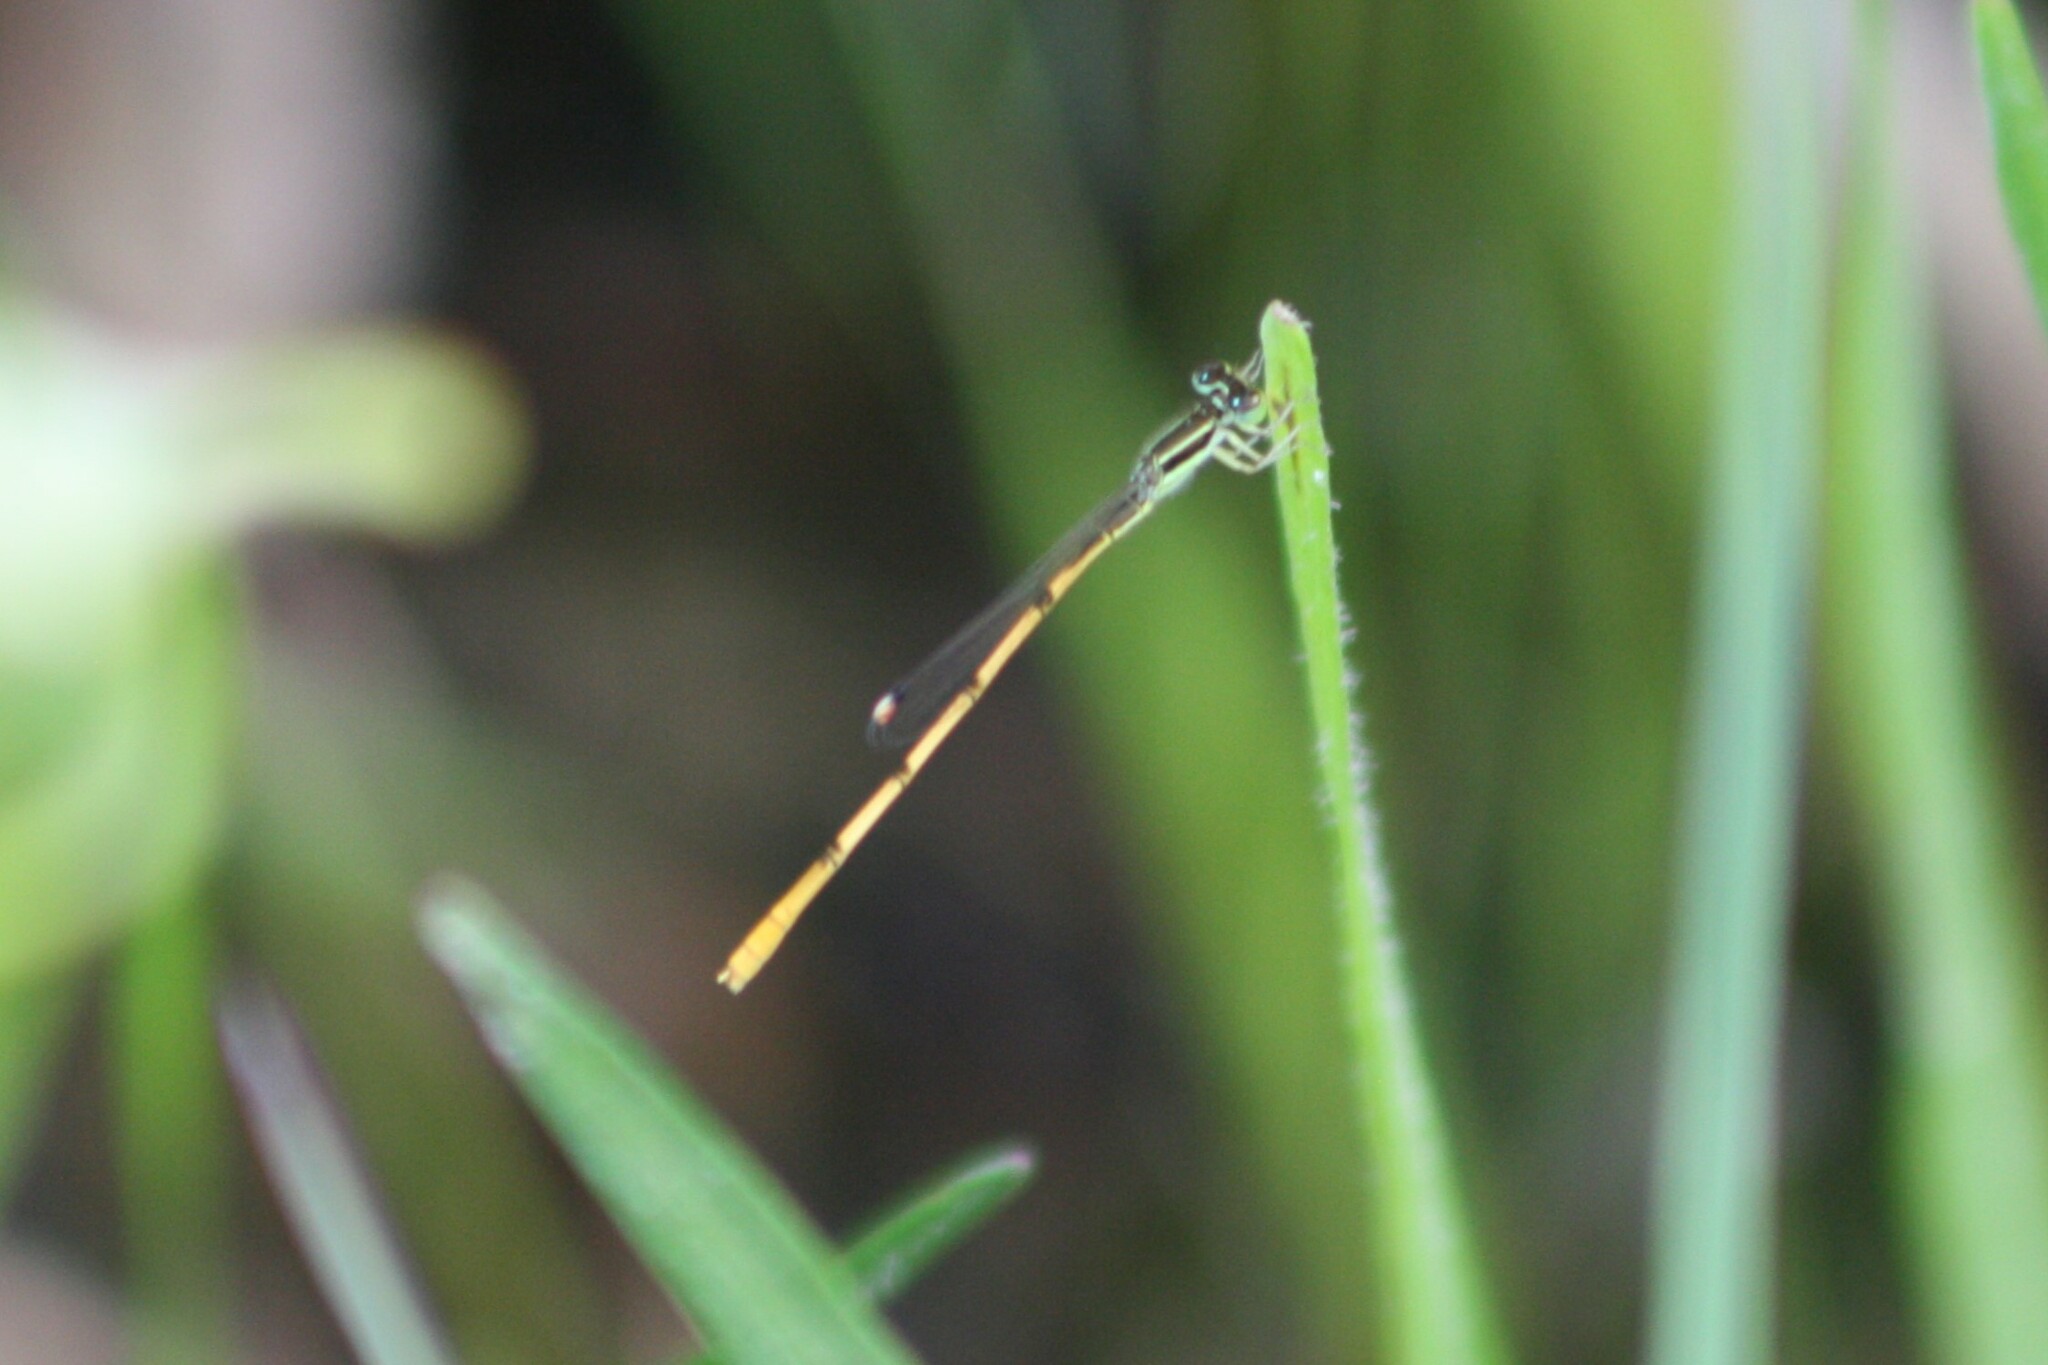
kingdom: Animalia
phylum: Arthropoda
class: Insecta
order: Odonata
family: Coenagrionidae
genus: Ischnura
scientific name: Ischnura hastata
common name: Citrine forktail
